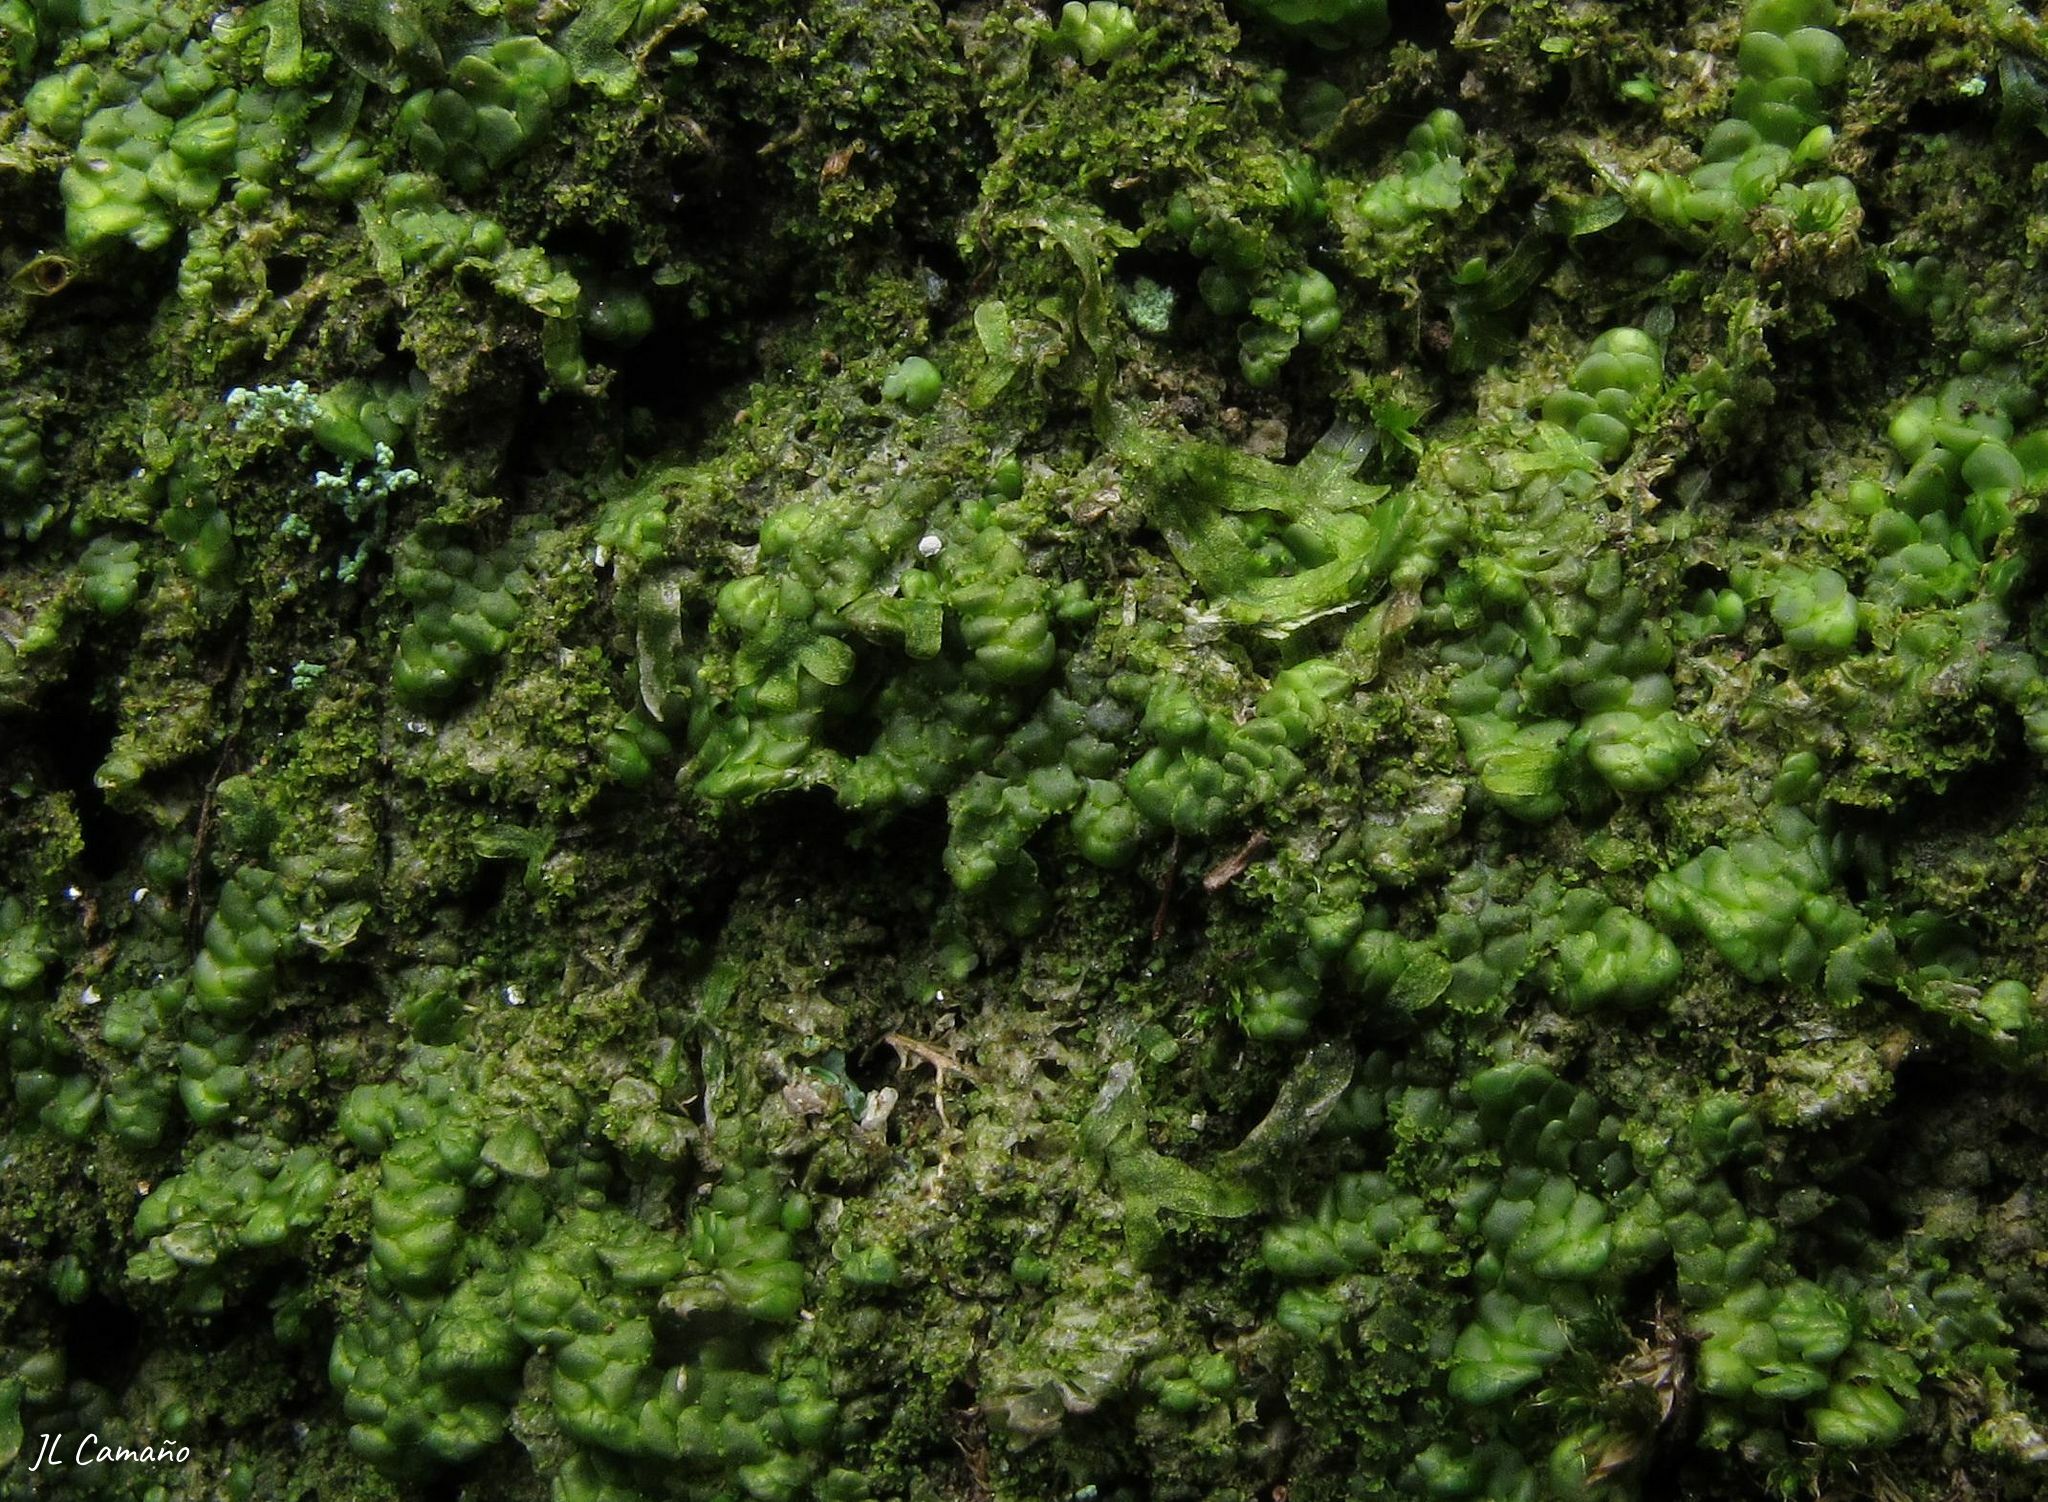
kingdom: Plantae
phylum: Marchantiophyta
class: Jungermanniopsida
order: Porellales
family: Radulaceae
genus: Radula
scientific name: Radula complanata
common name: Flat-leaved scalewort
